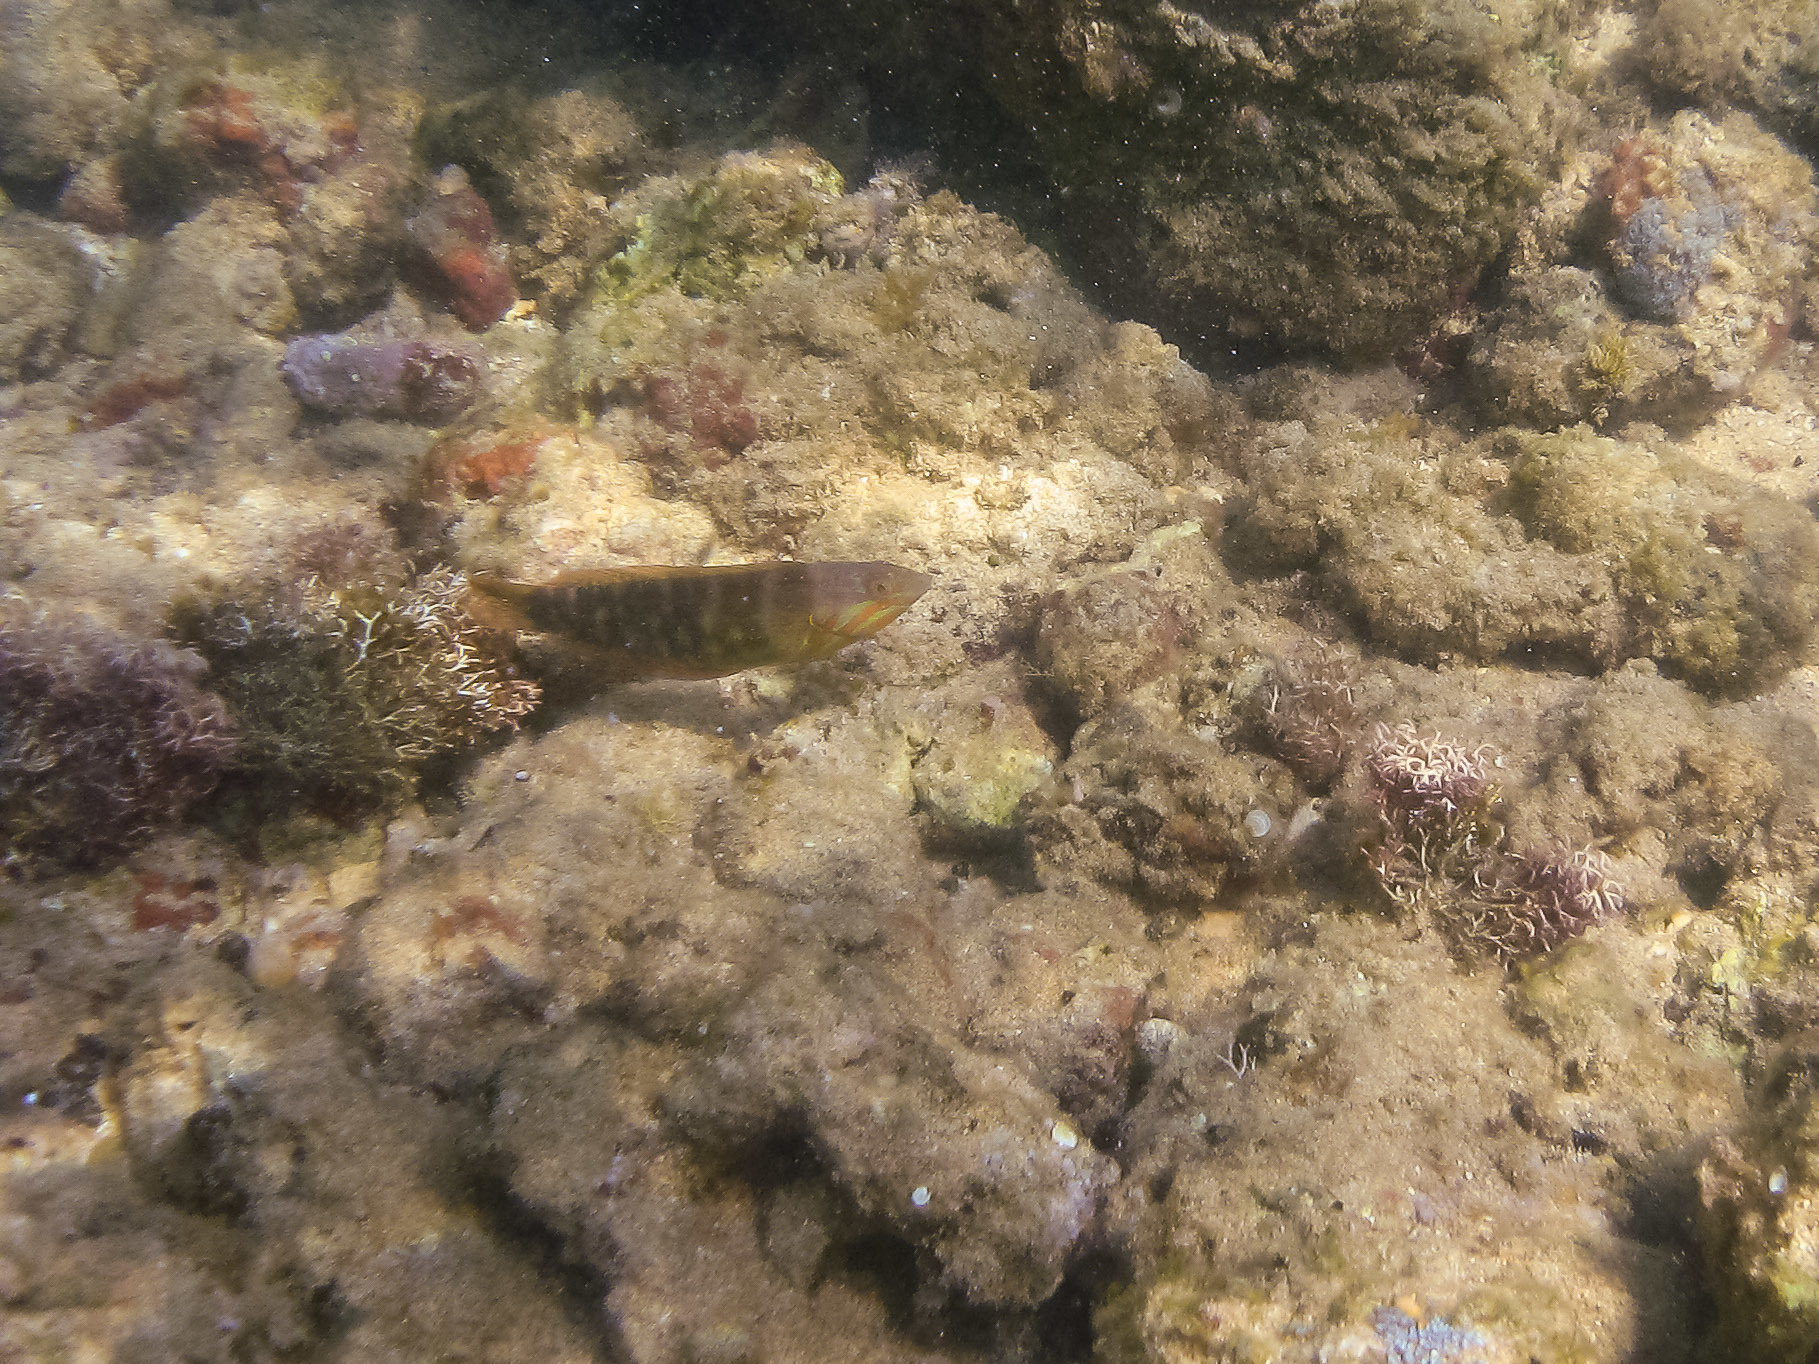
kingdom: Animalia
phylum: Chordata
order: Perciformes
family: Labridae
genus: Coris
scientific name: Coris venusta
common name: Elegant coris
